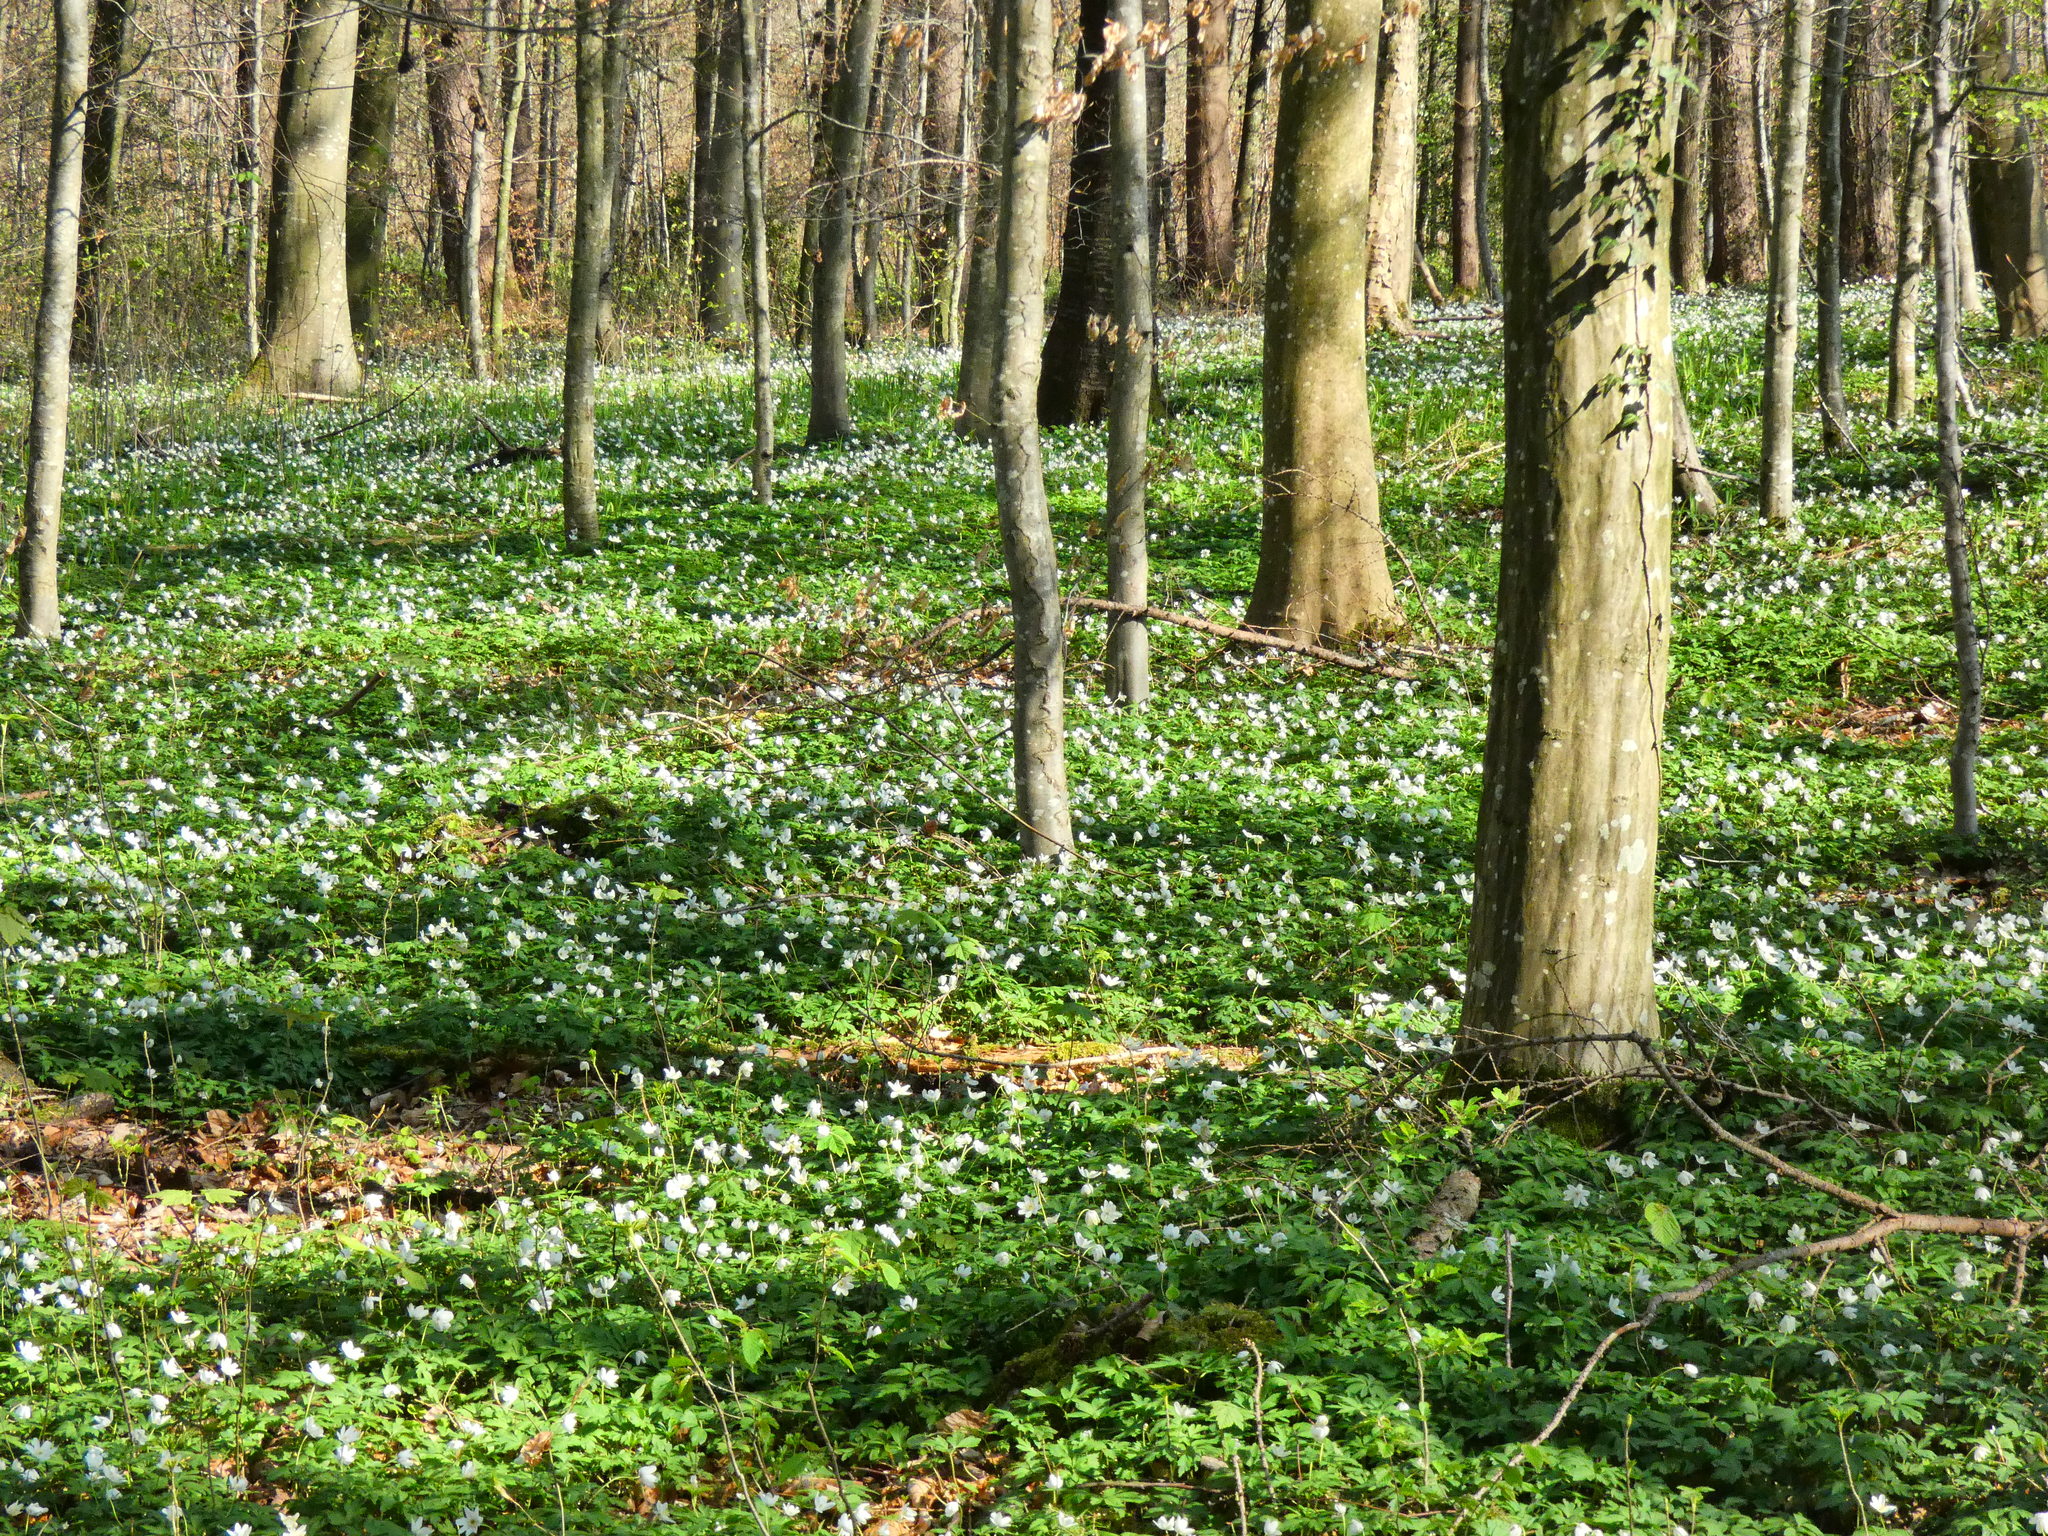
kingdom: Plantae
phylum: Tracheophyta
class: Magnoliopsida
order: Ranunculales
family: Ranunculaceae
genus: Anemone
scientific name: Anemone nemorosa
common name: Wood anemone
